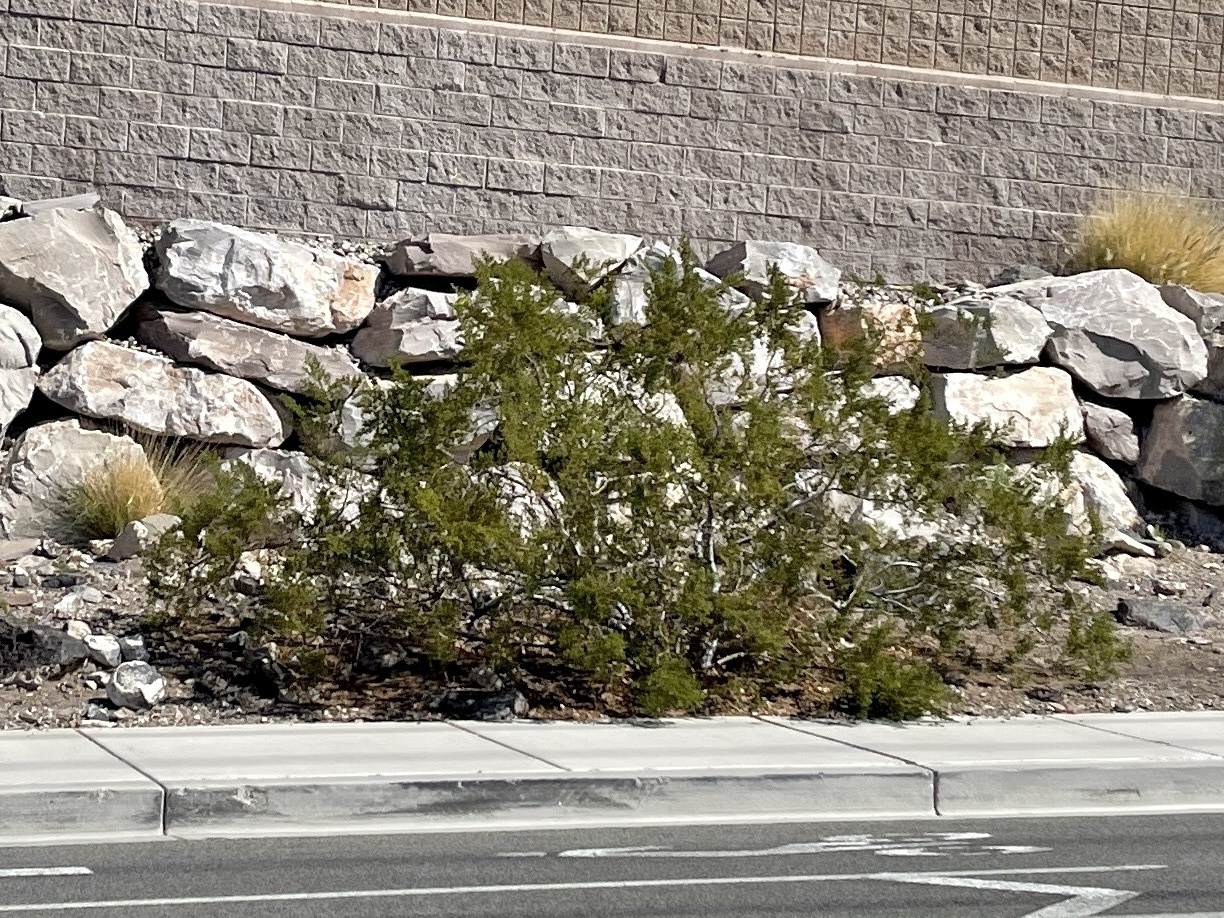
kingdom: Plantae
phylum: Tracheophyta
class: Magnoliopsida
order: Zygophyllales
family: Zygophyllaceae
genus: Larrea
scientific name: Larrea tridentata
